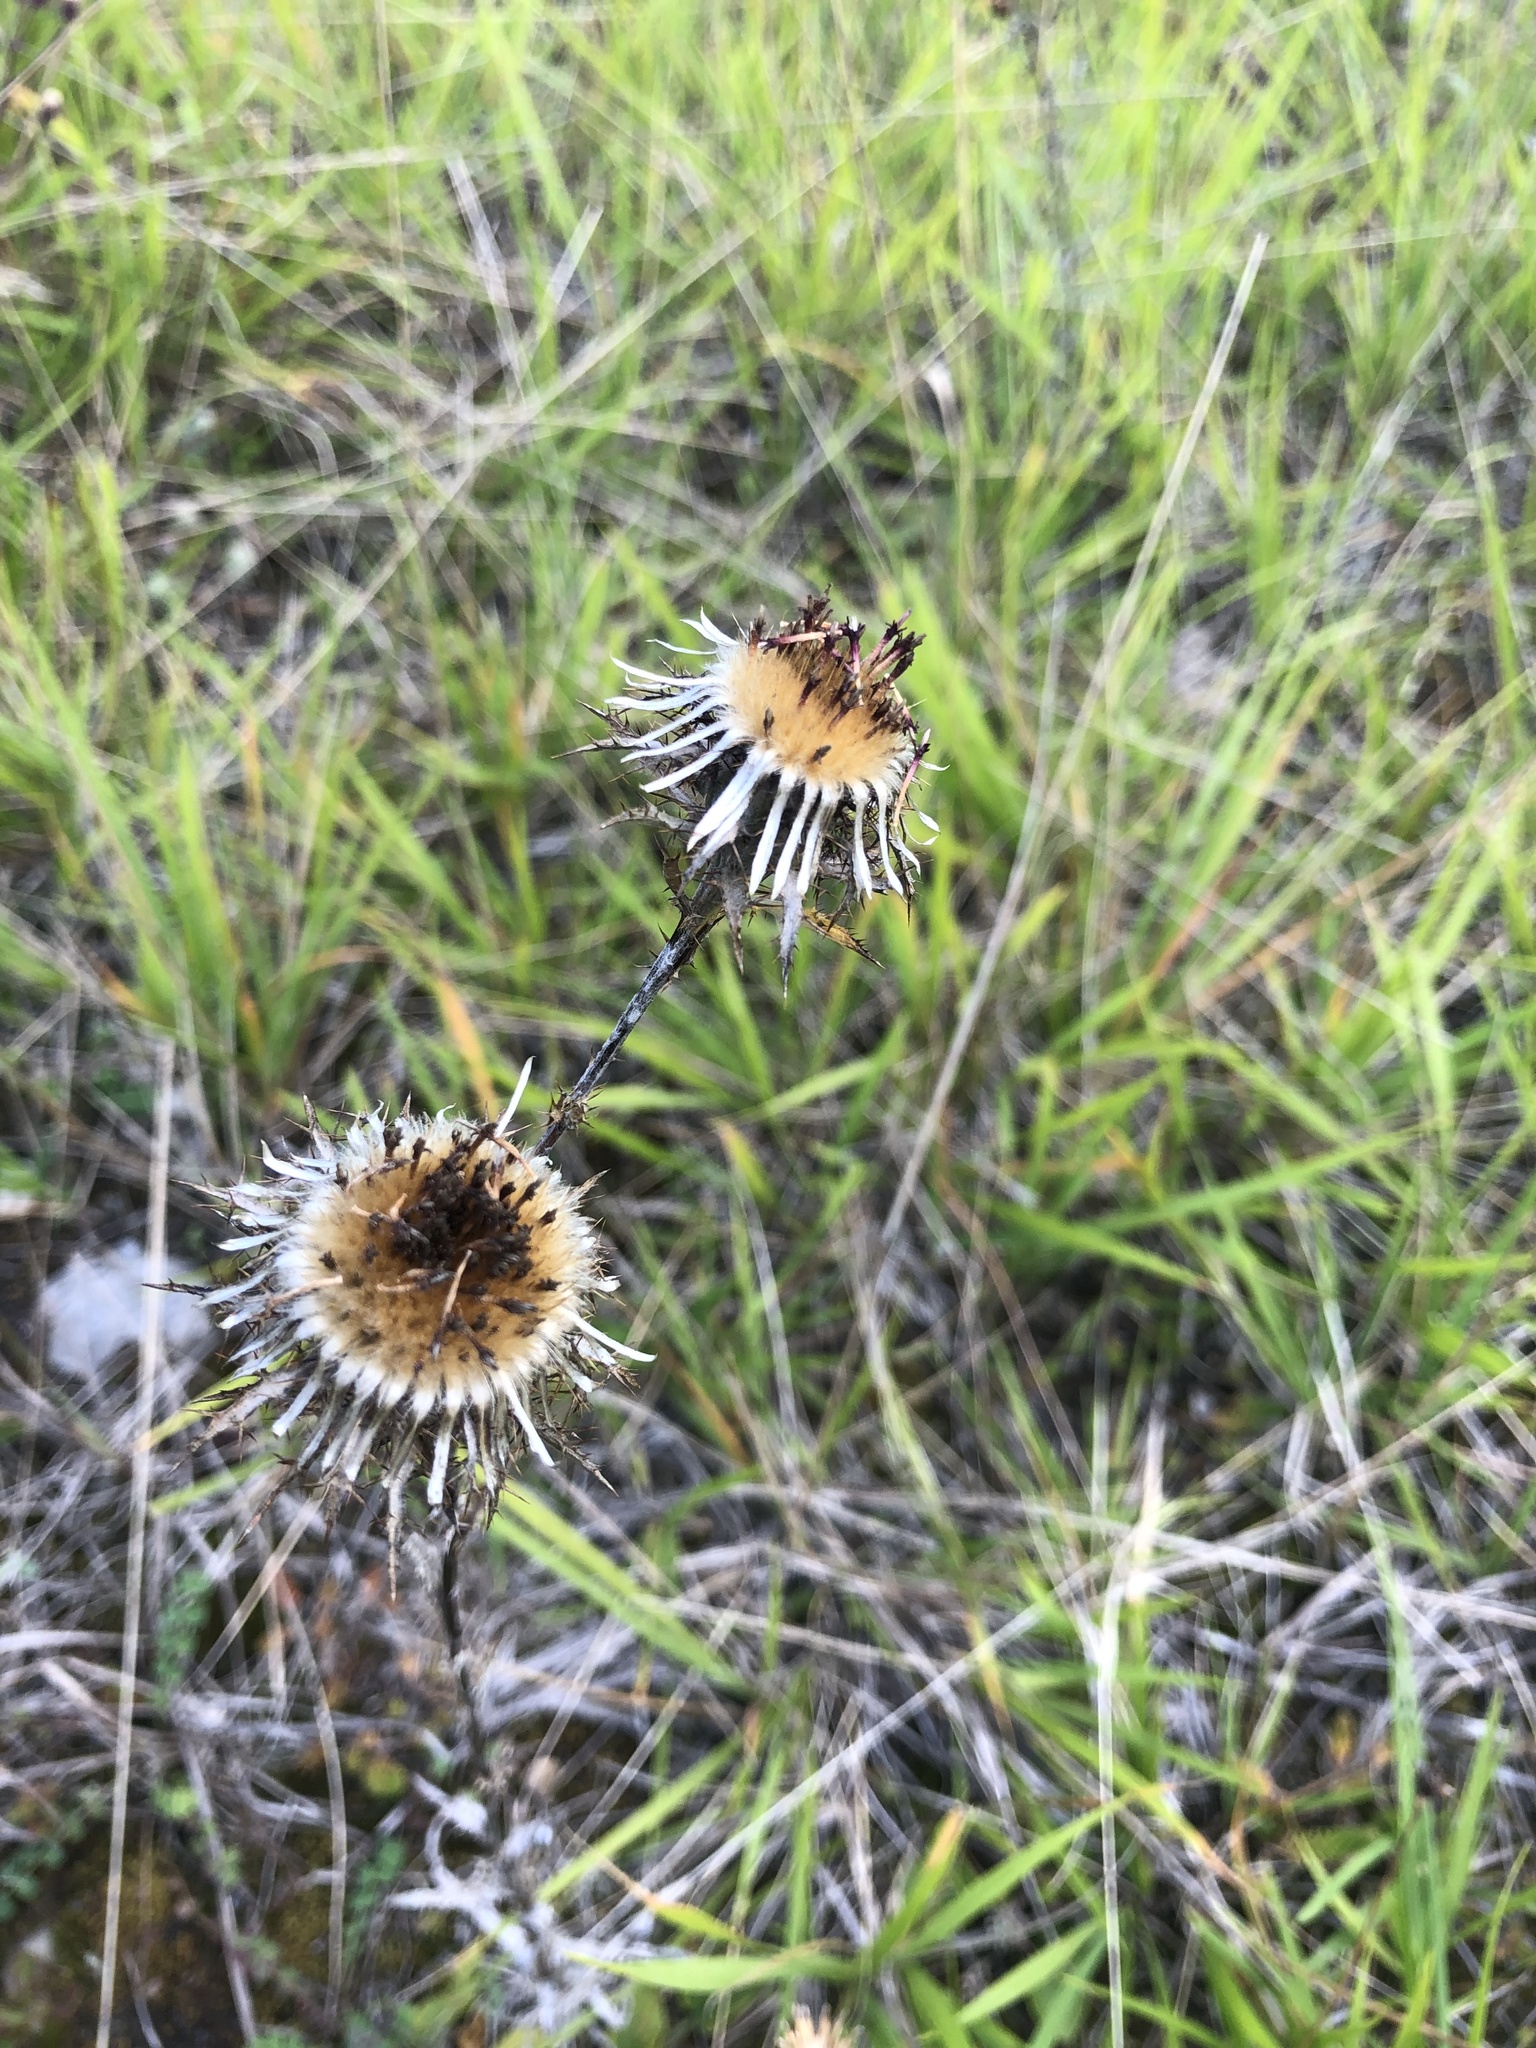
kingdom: Plantae
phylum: Tracheophyta
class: Magnoliopsida
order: Asterales
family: Asteraceae
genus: Carlina
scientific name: Carlina vulgaris
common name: Carline thistle
